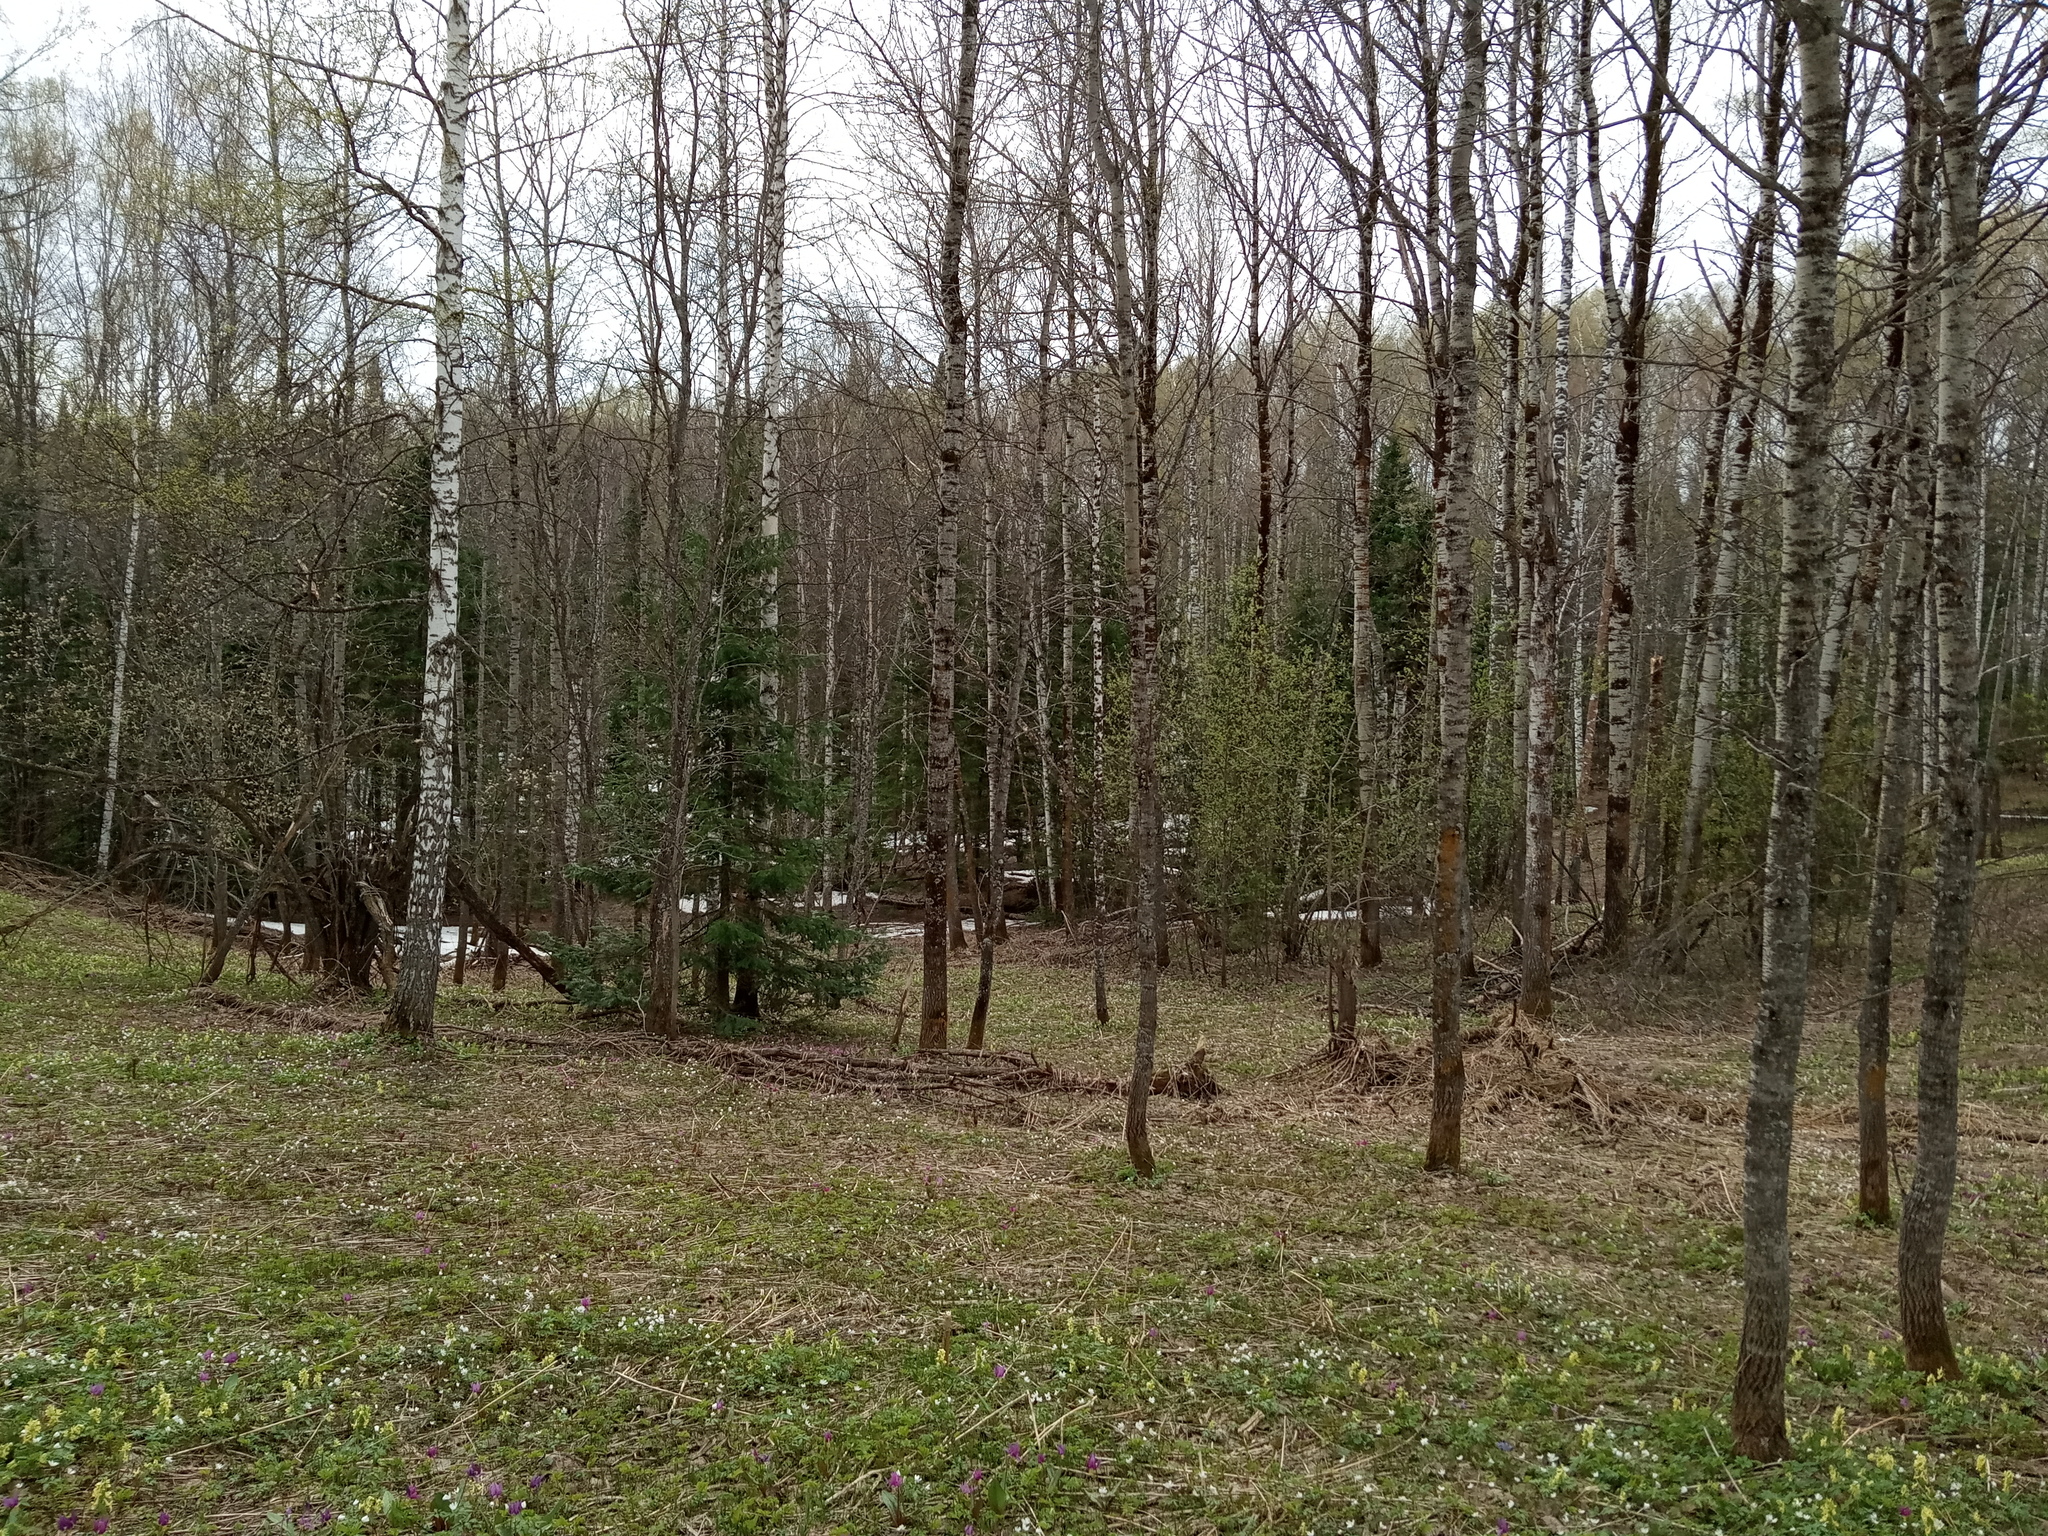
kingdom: Plantae
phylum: Tracheophyta
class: Magnoliopsida
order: Malpighiales
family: Salicaceae
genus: Populus
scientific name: Populus tremula
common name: European aspen
